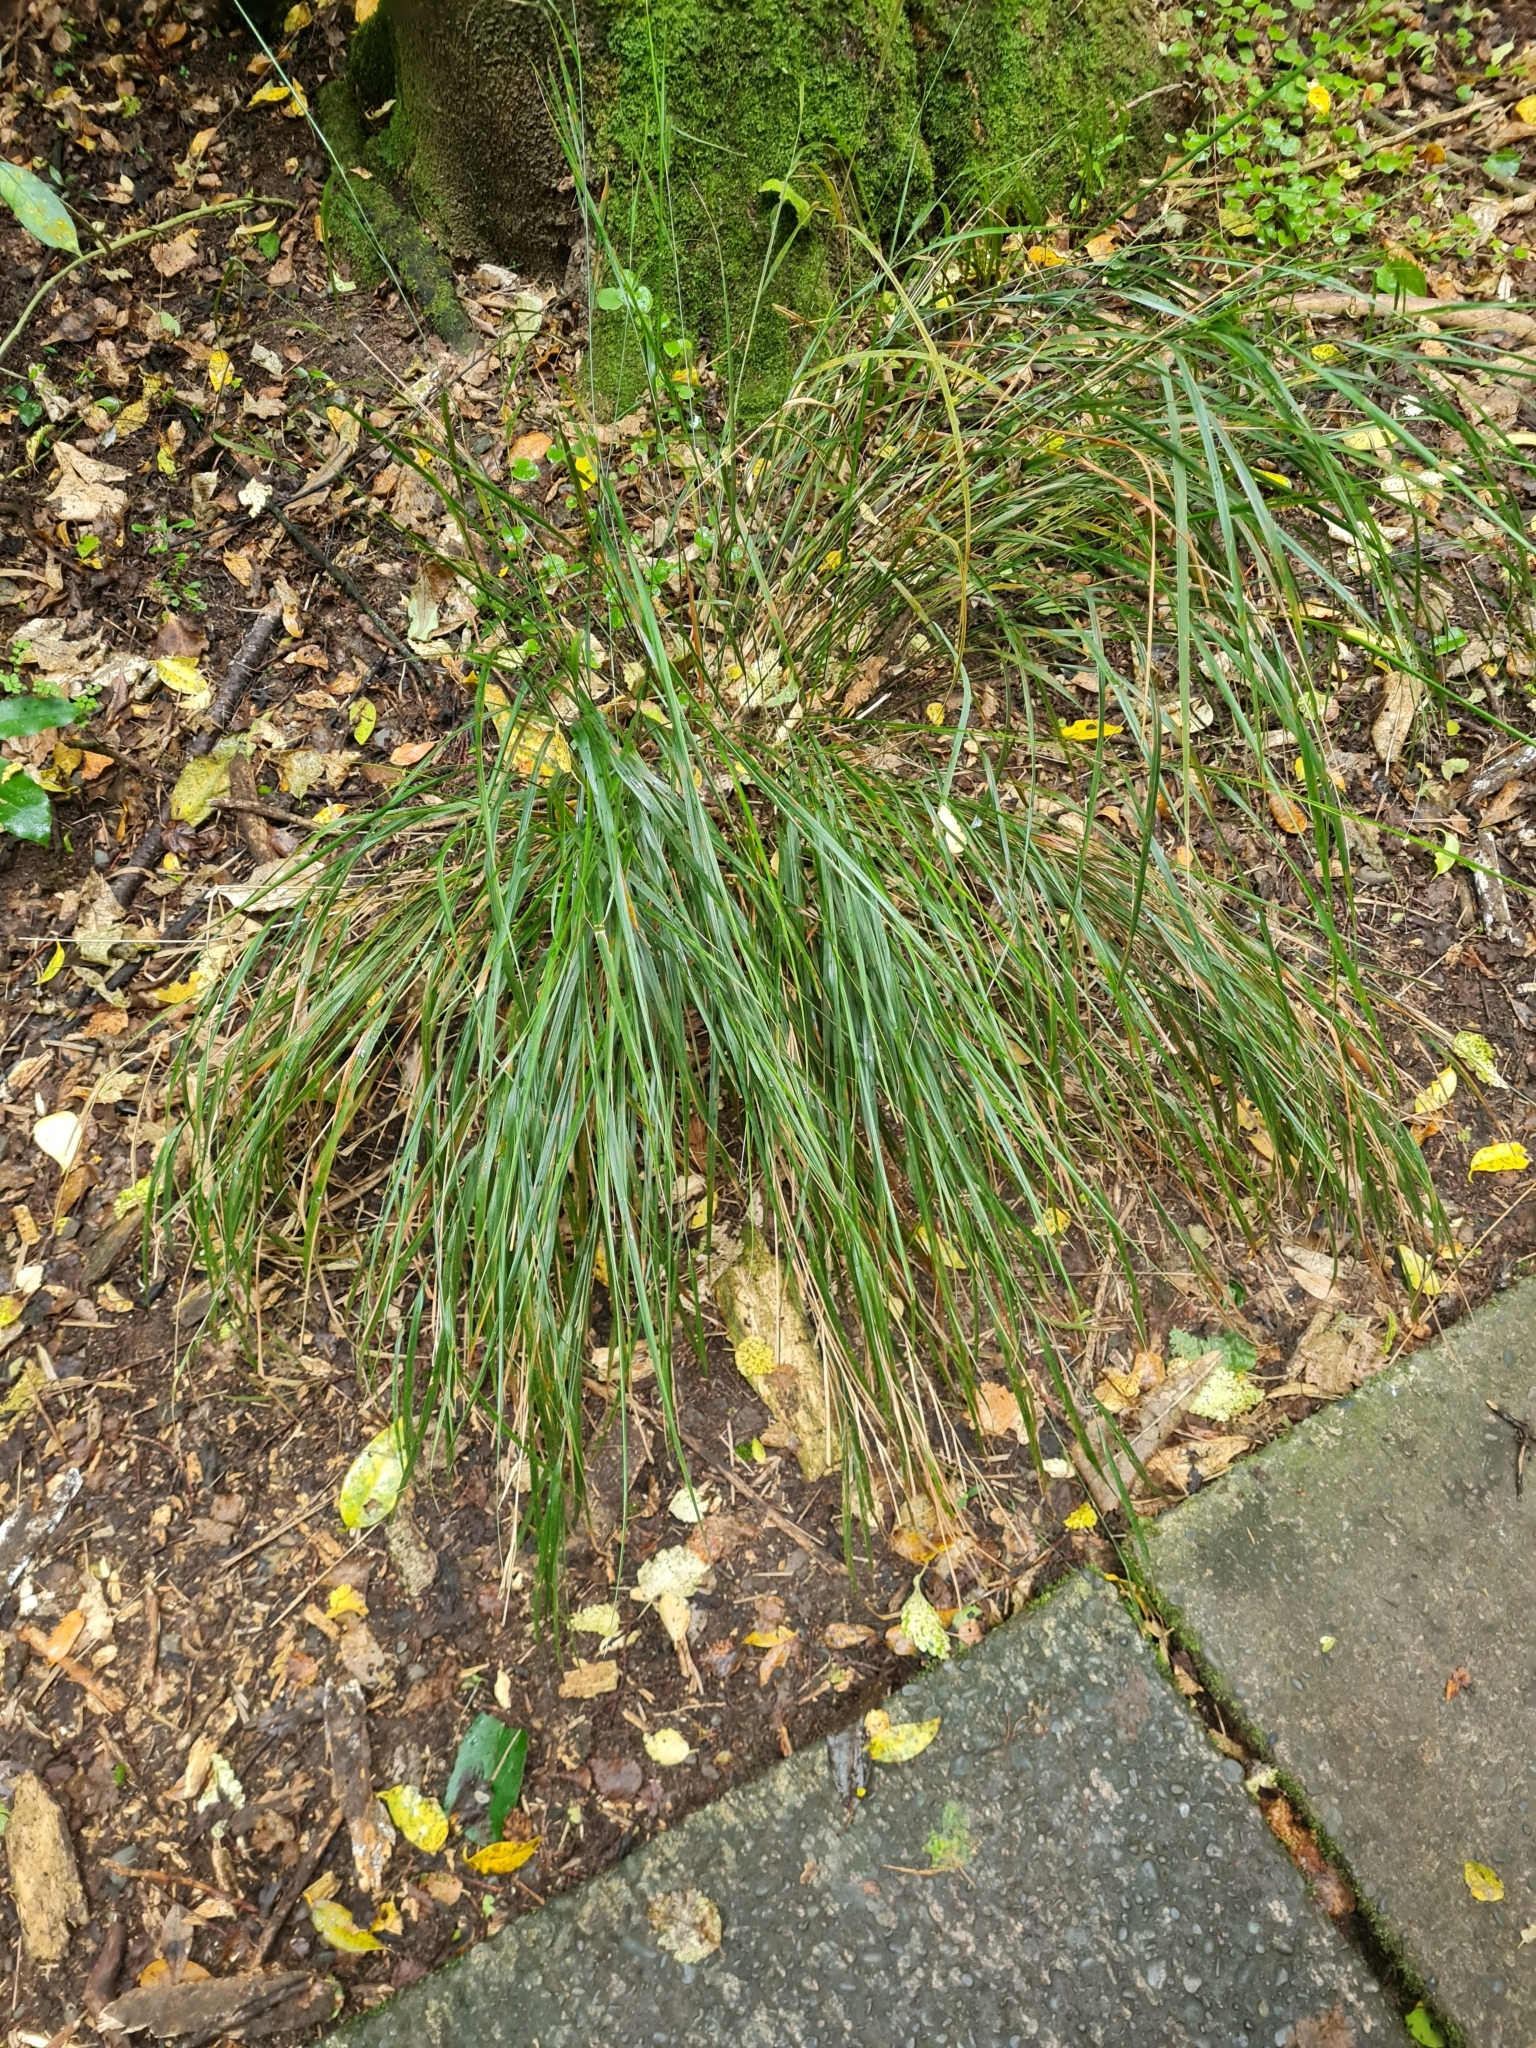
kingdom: Plantae
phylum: Tracheophyta
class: Liliopsida
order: Poales
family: Poaceae
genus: Anemanthele
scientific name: Anemanthele lessoniana
